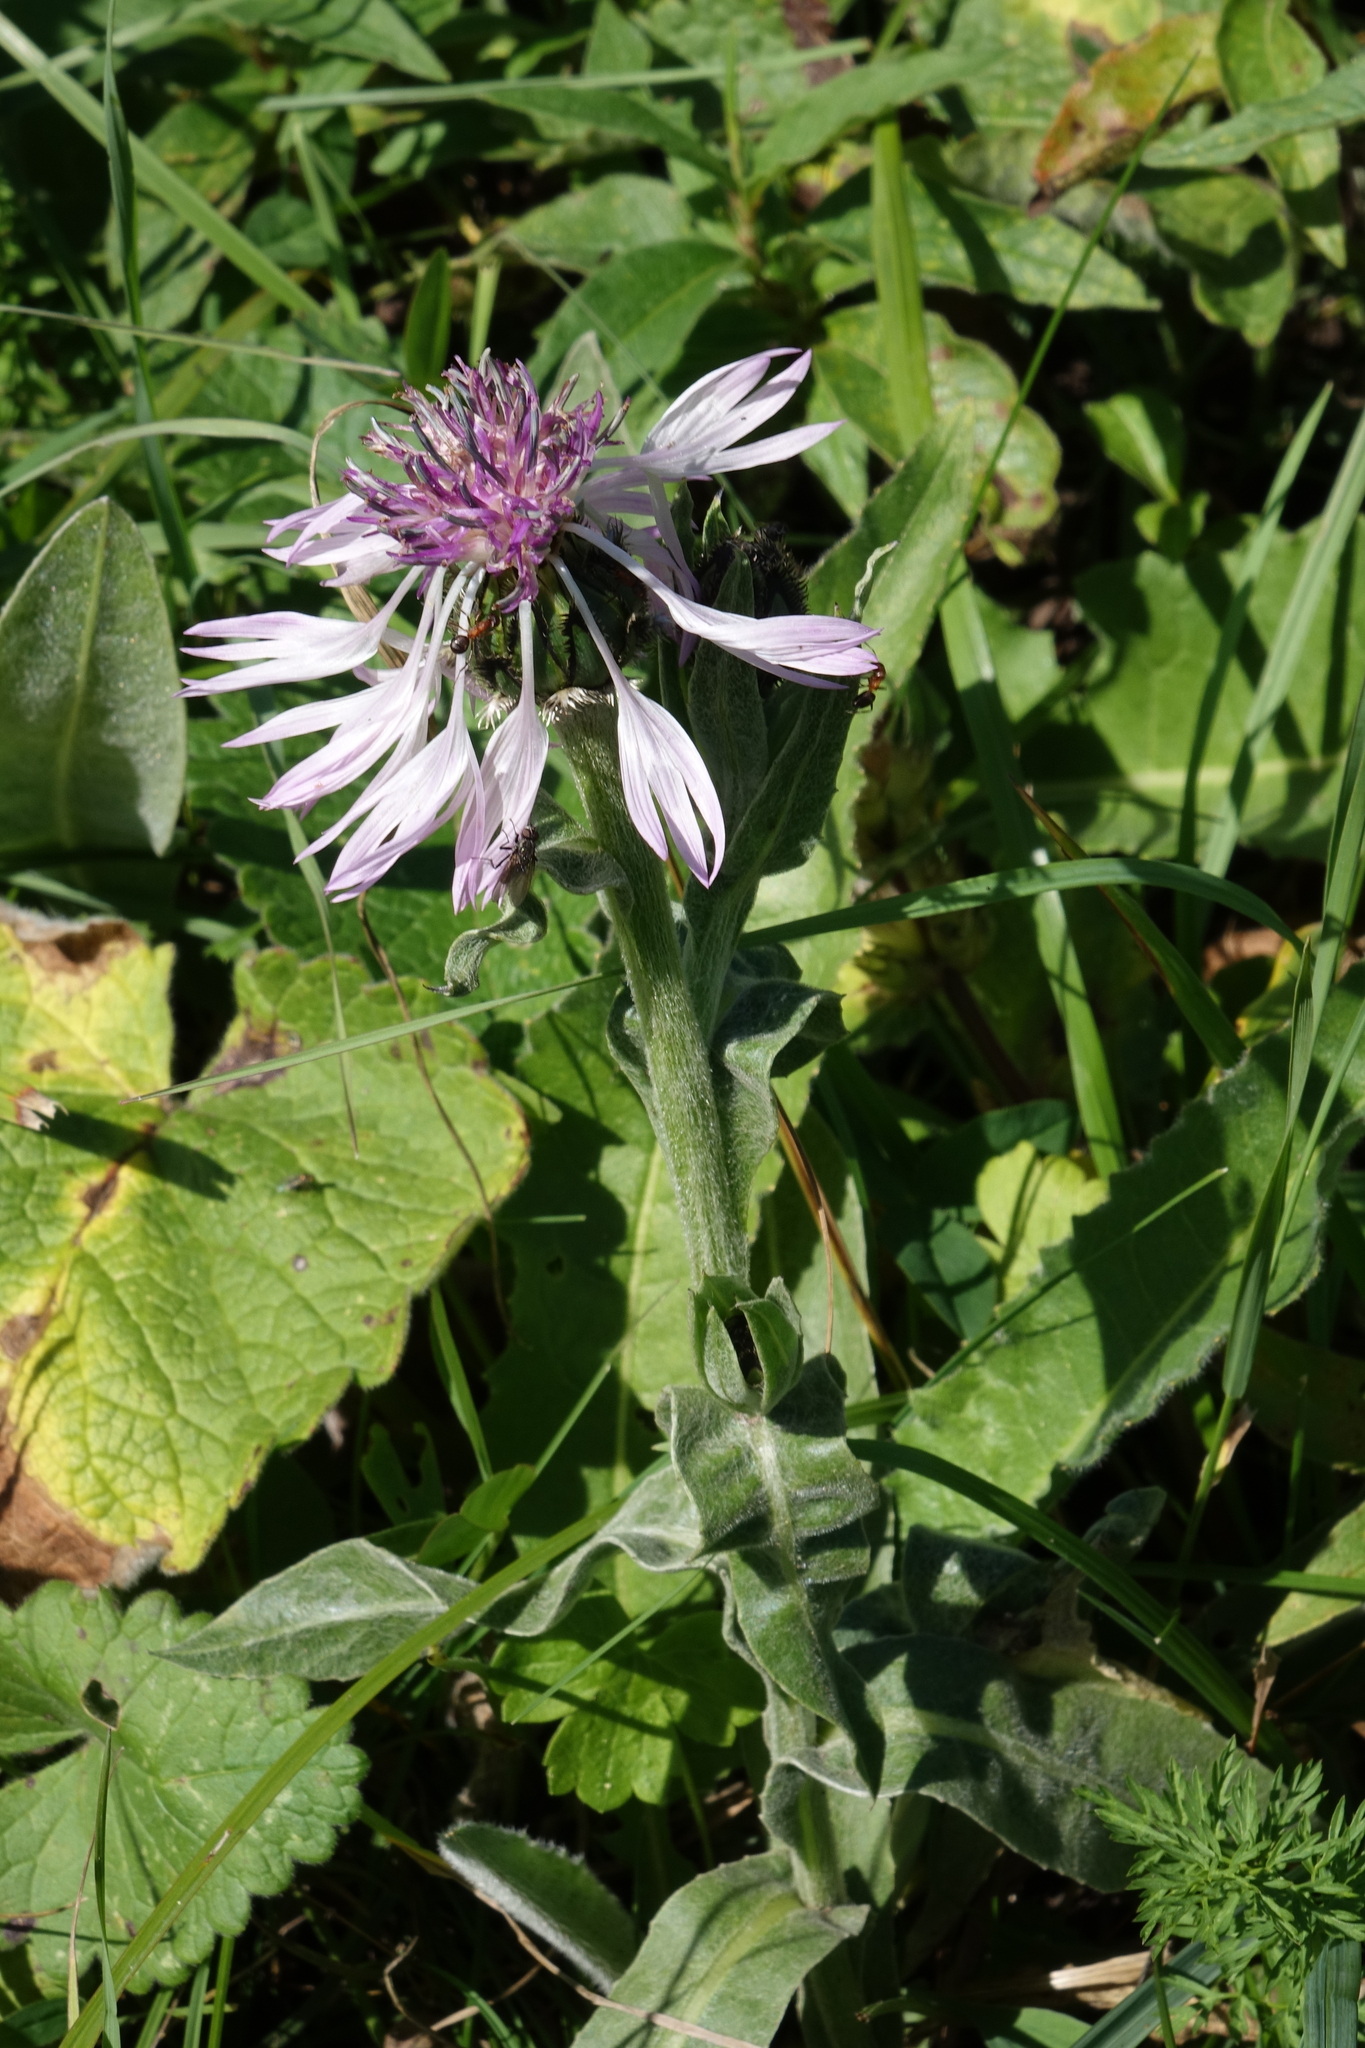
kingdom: Plantae
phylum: Tracheophyta
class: Magnoliopsida
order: Asterales
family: Asteraceae
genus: Centaurea
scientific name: Centaurea cheiranthifolia
